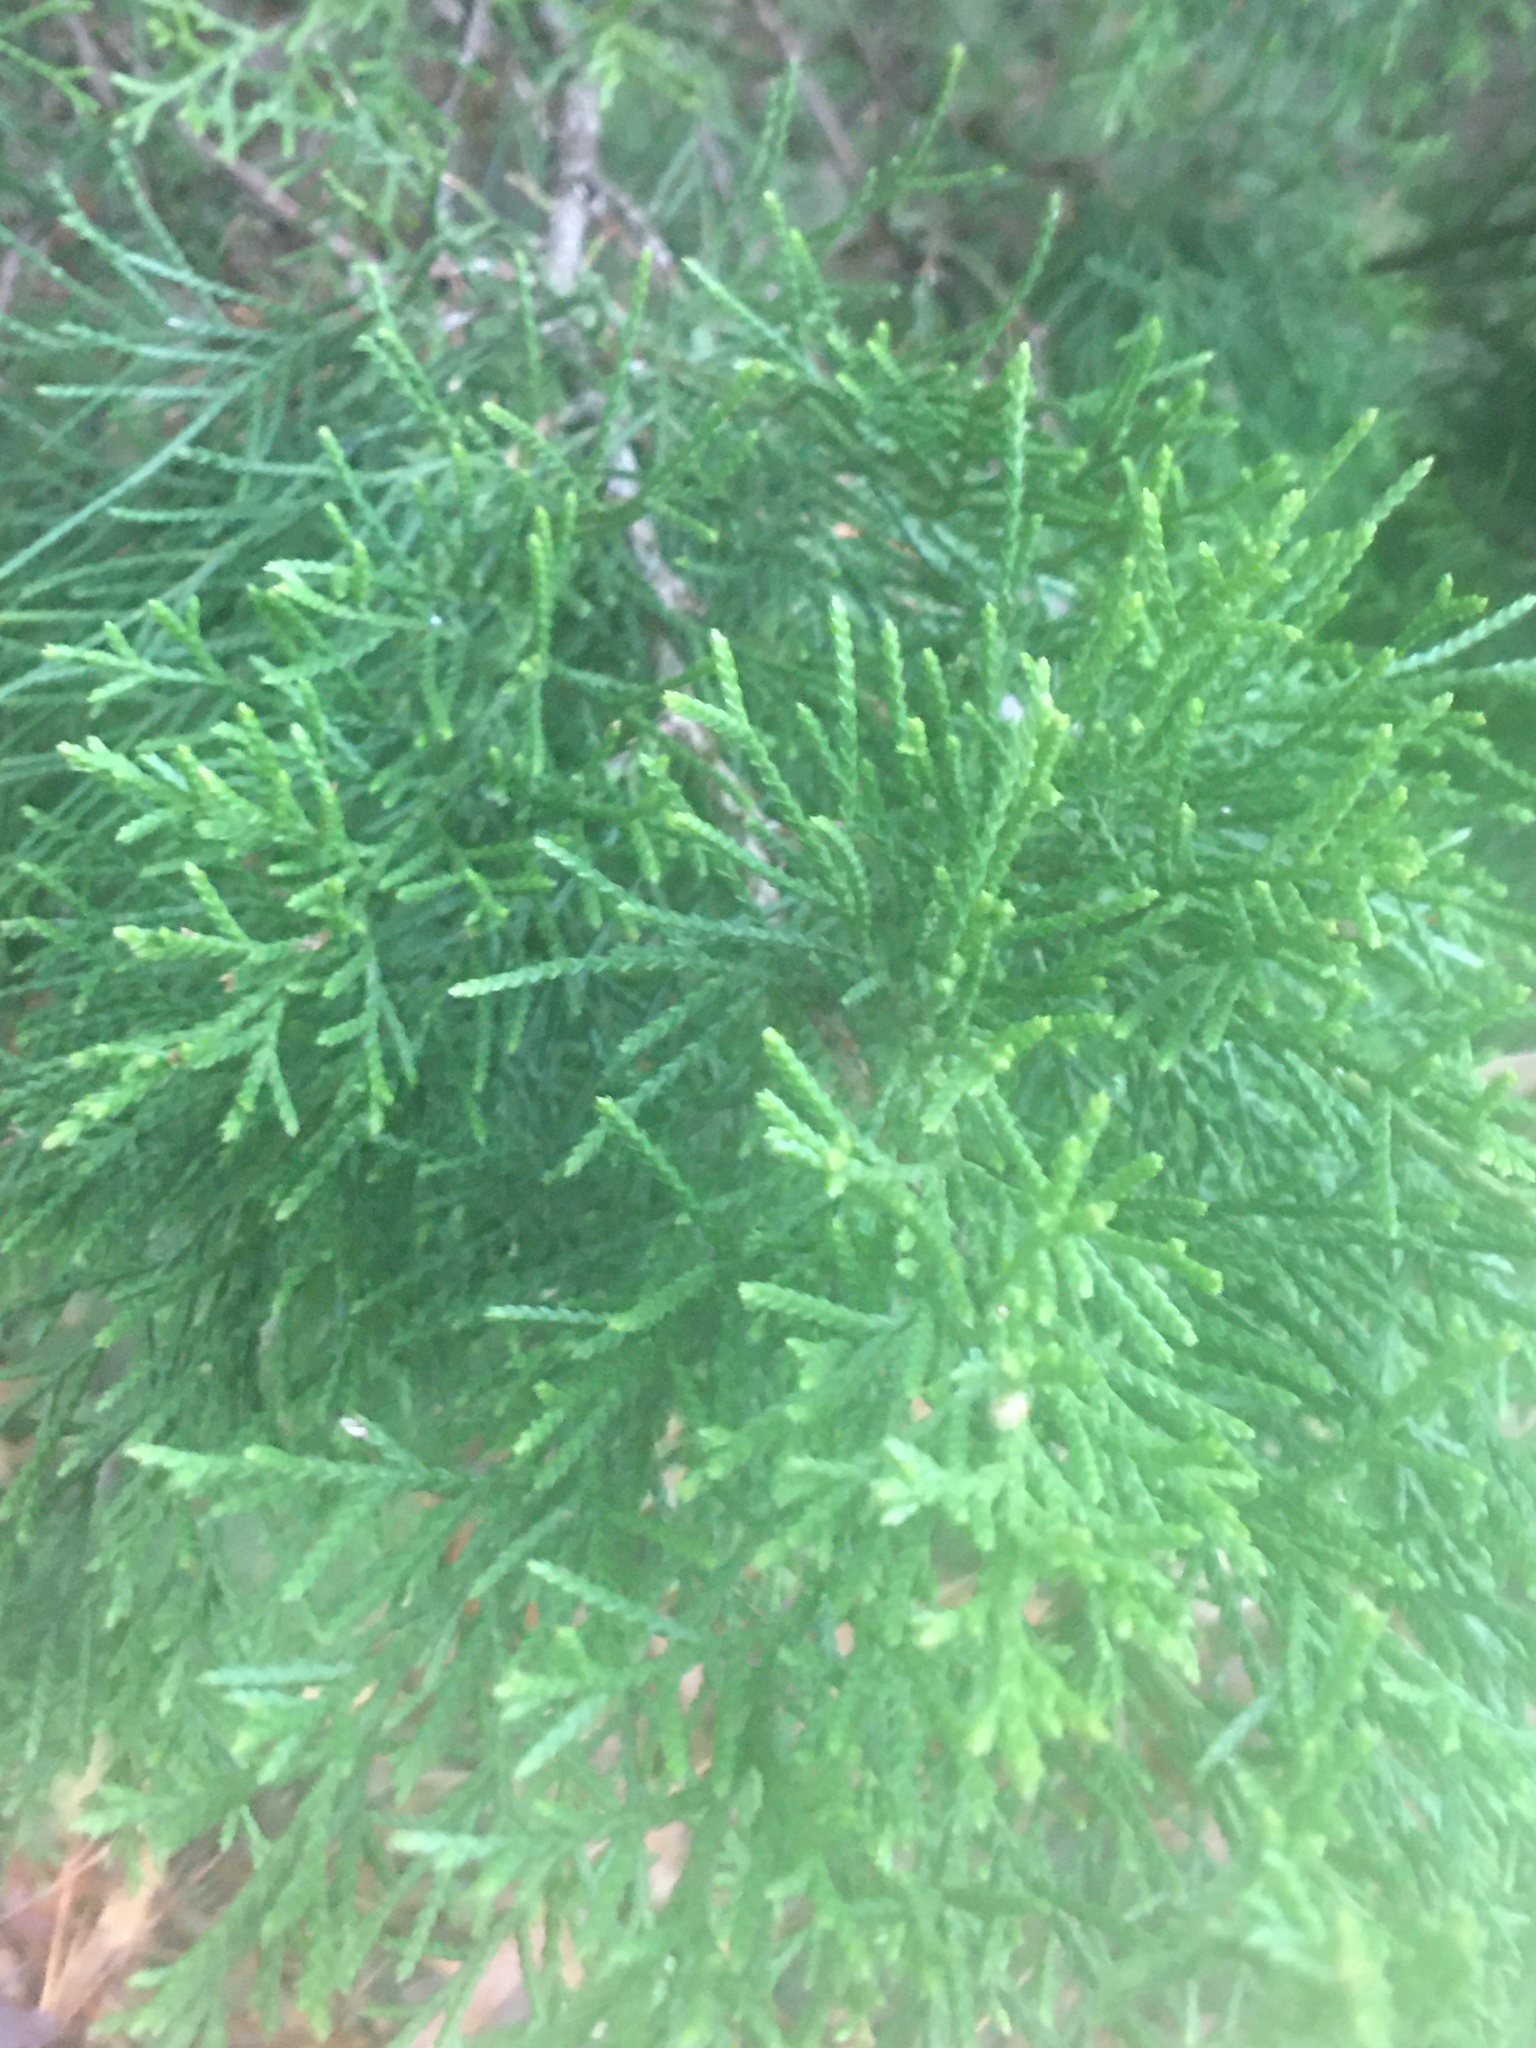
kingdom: Plantae
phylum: Tracheophyta
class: Pinopsida
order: Pinales
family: Cupressaceae
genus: Juniperus
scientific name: Juniperus virginiana
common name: Red juniper
